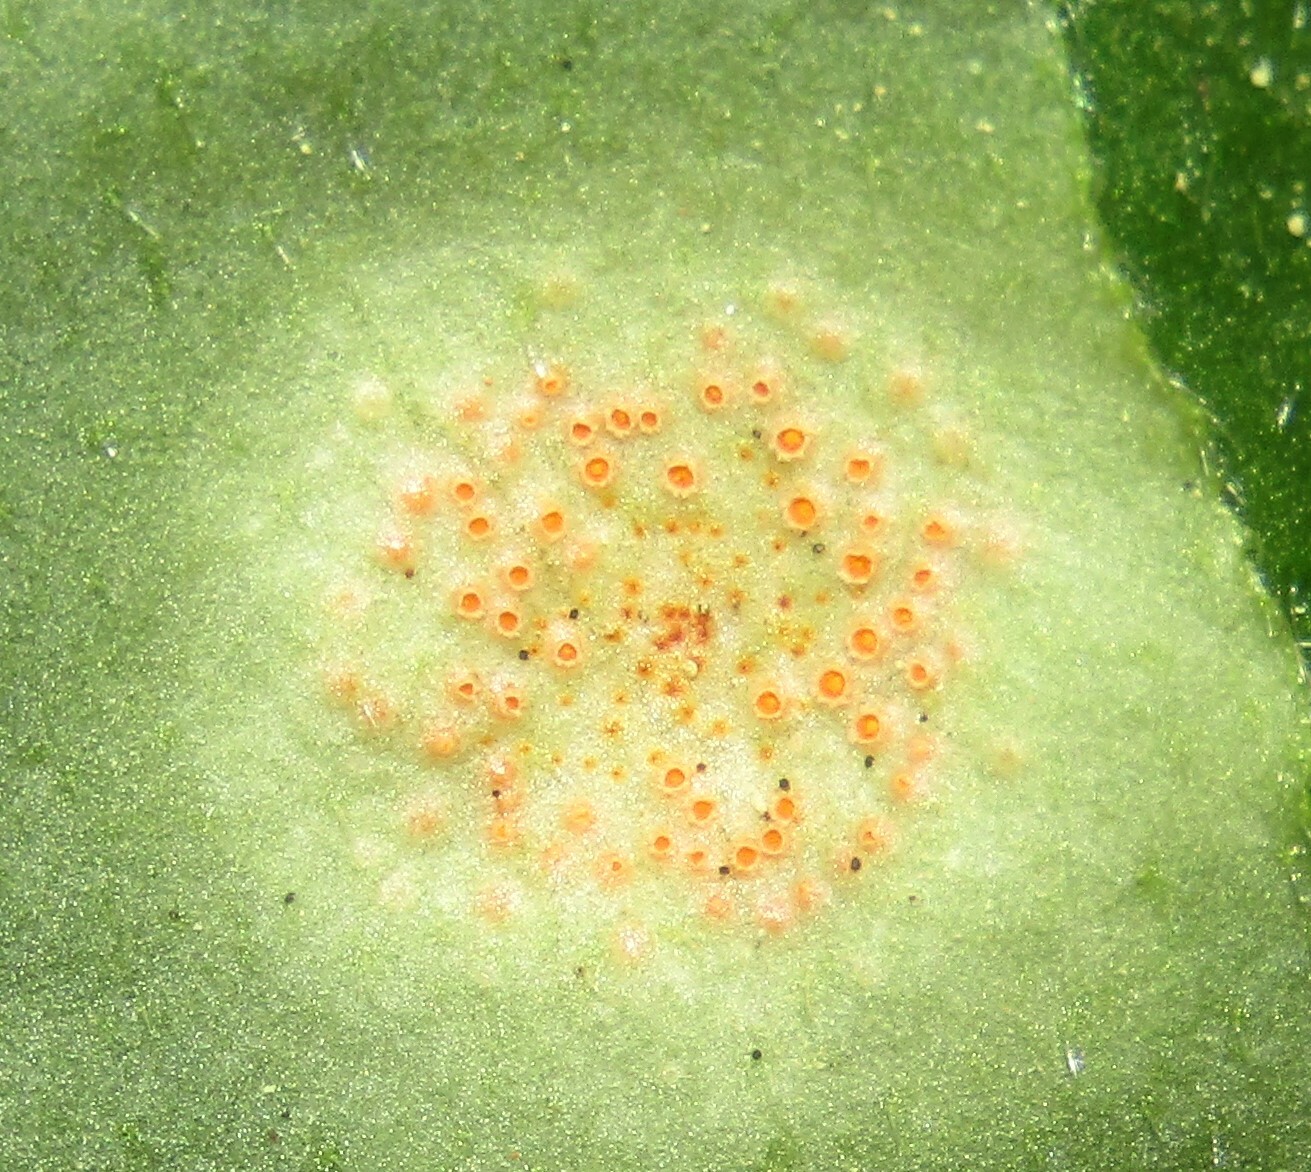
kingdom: Fungi
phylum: Basidiomycota
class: Pucciniomycetes
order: Pucciniales
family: Pucciniaceae
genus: Puccinia
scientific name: Puccinia bromina
